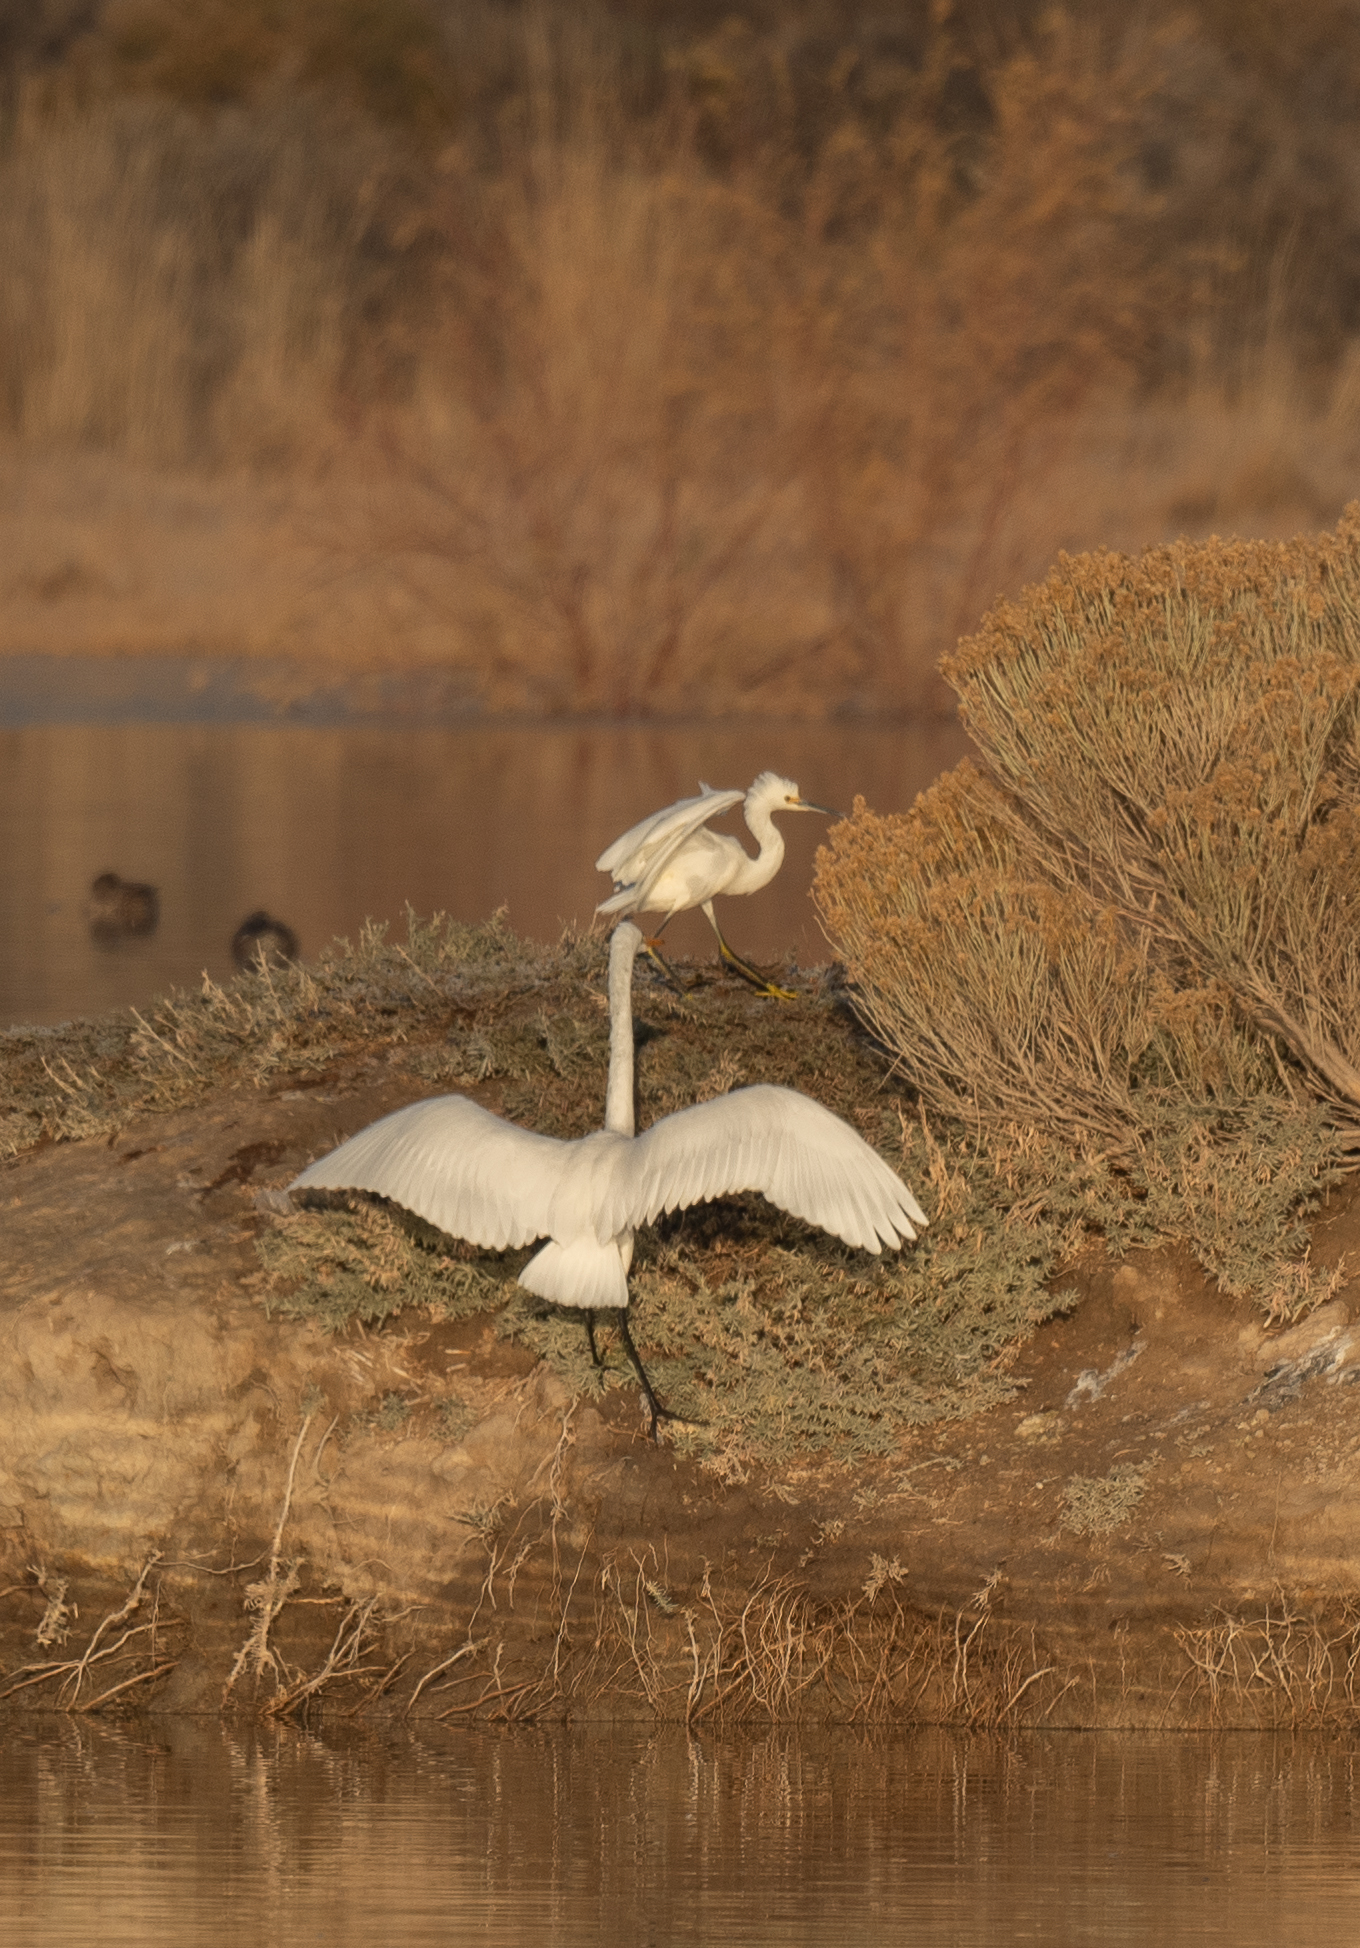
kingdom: Animalia
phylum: Chordata
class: Aves
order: Pelecaniformes
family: Ardeidae
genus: Egretta
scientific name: Egretta thula
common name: Snowy egret
